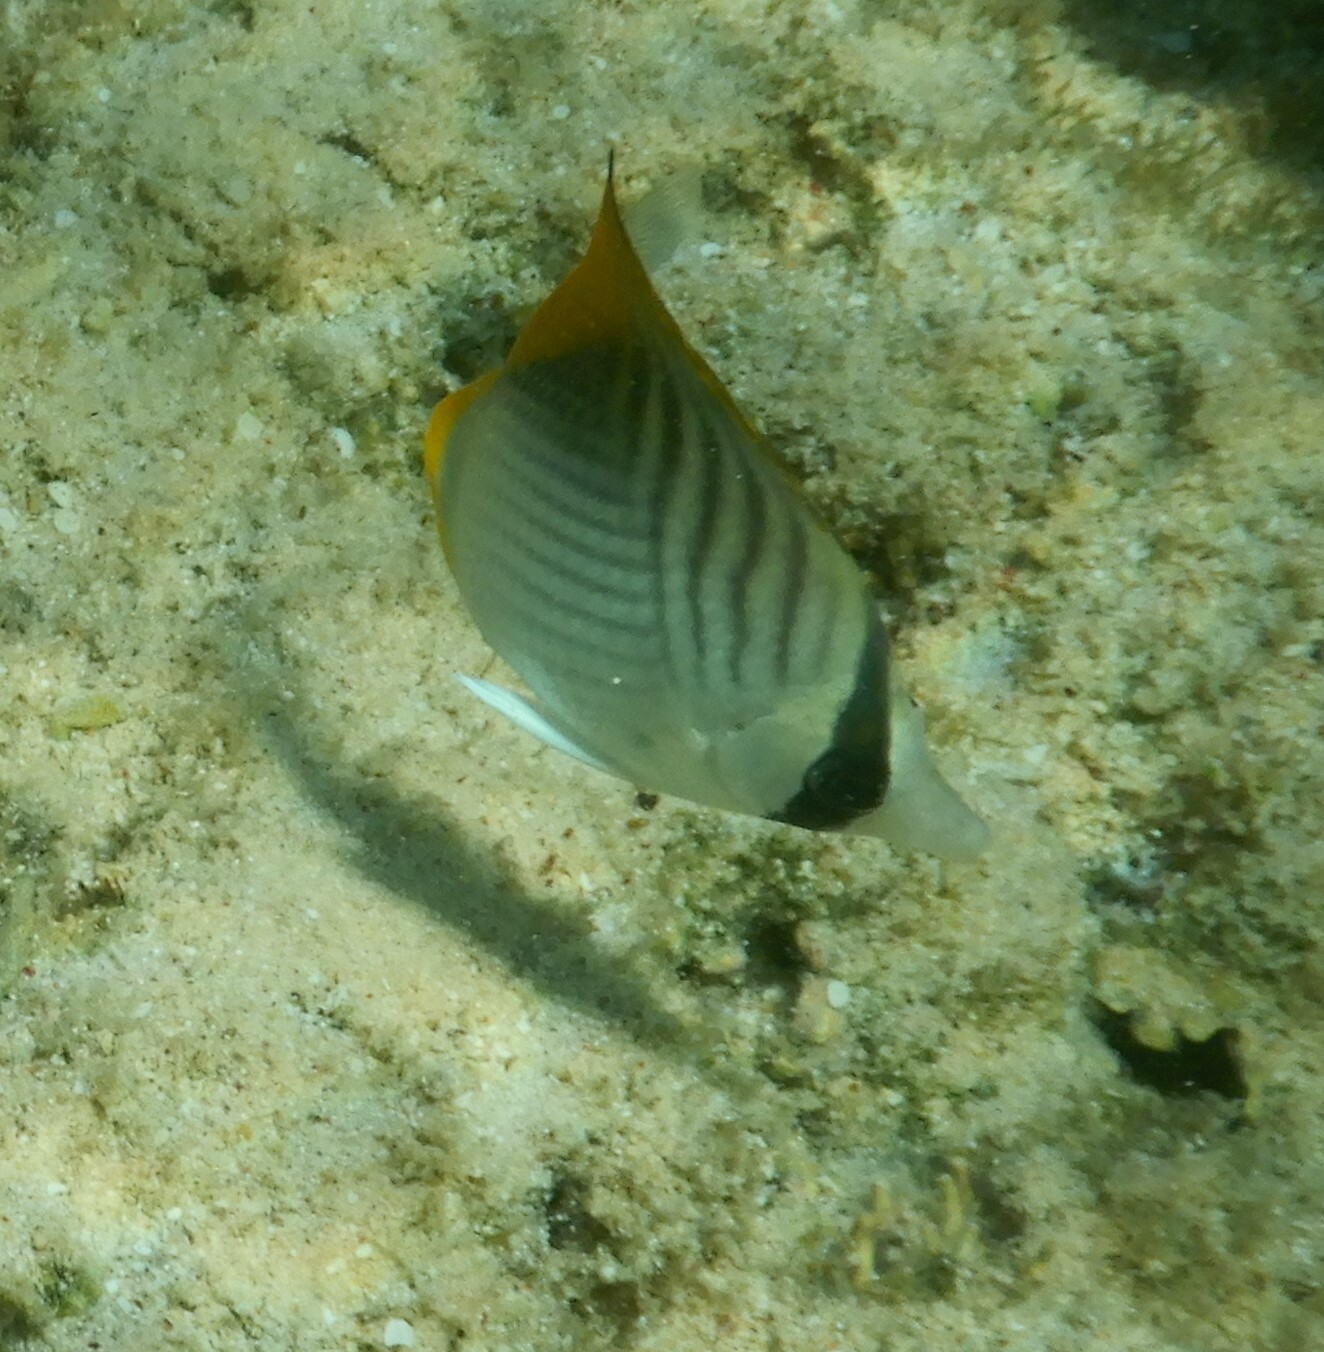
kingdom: Animalia
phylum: Chordata
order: Perciformes
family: Chaetodontidae
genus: Chaetodon
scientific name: Chaetodon auriga
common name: Threadfin butterflyfish
